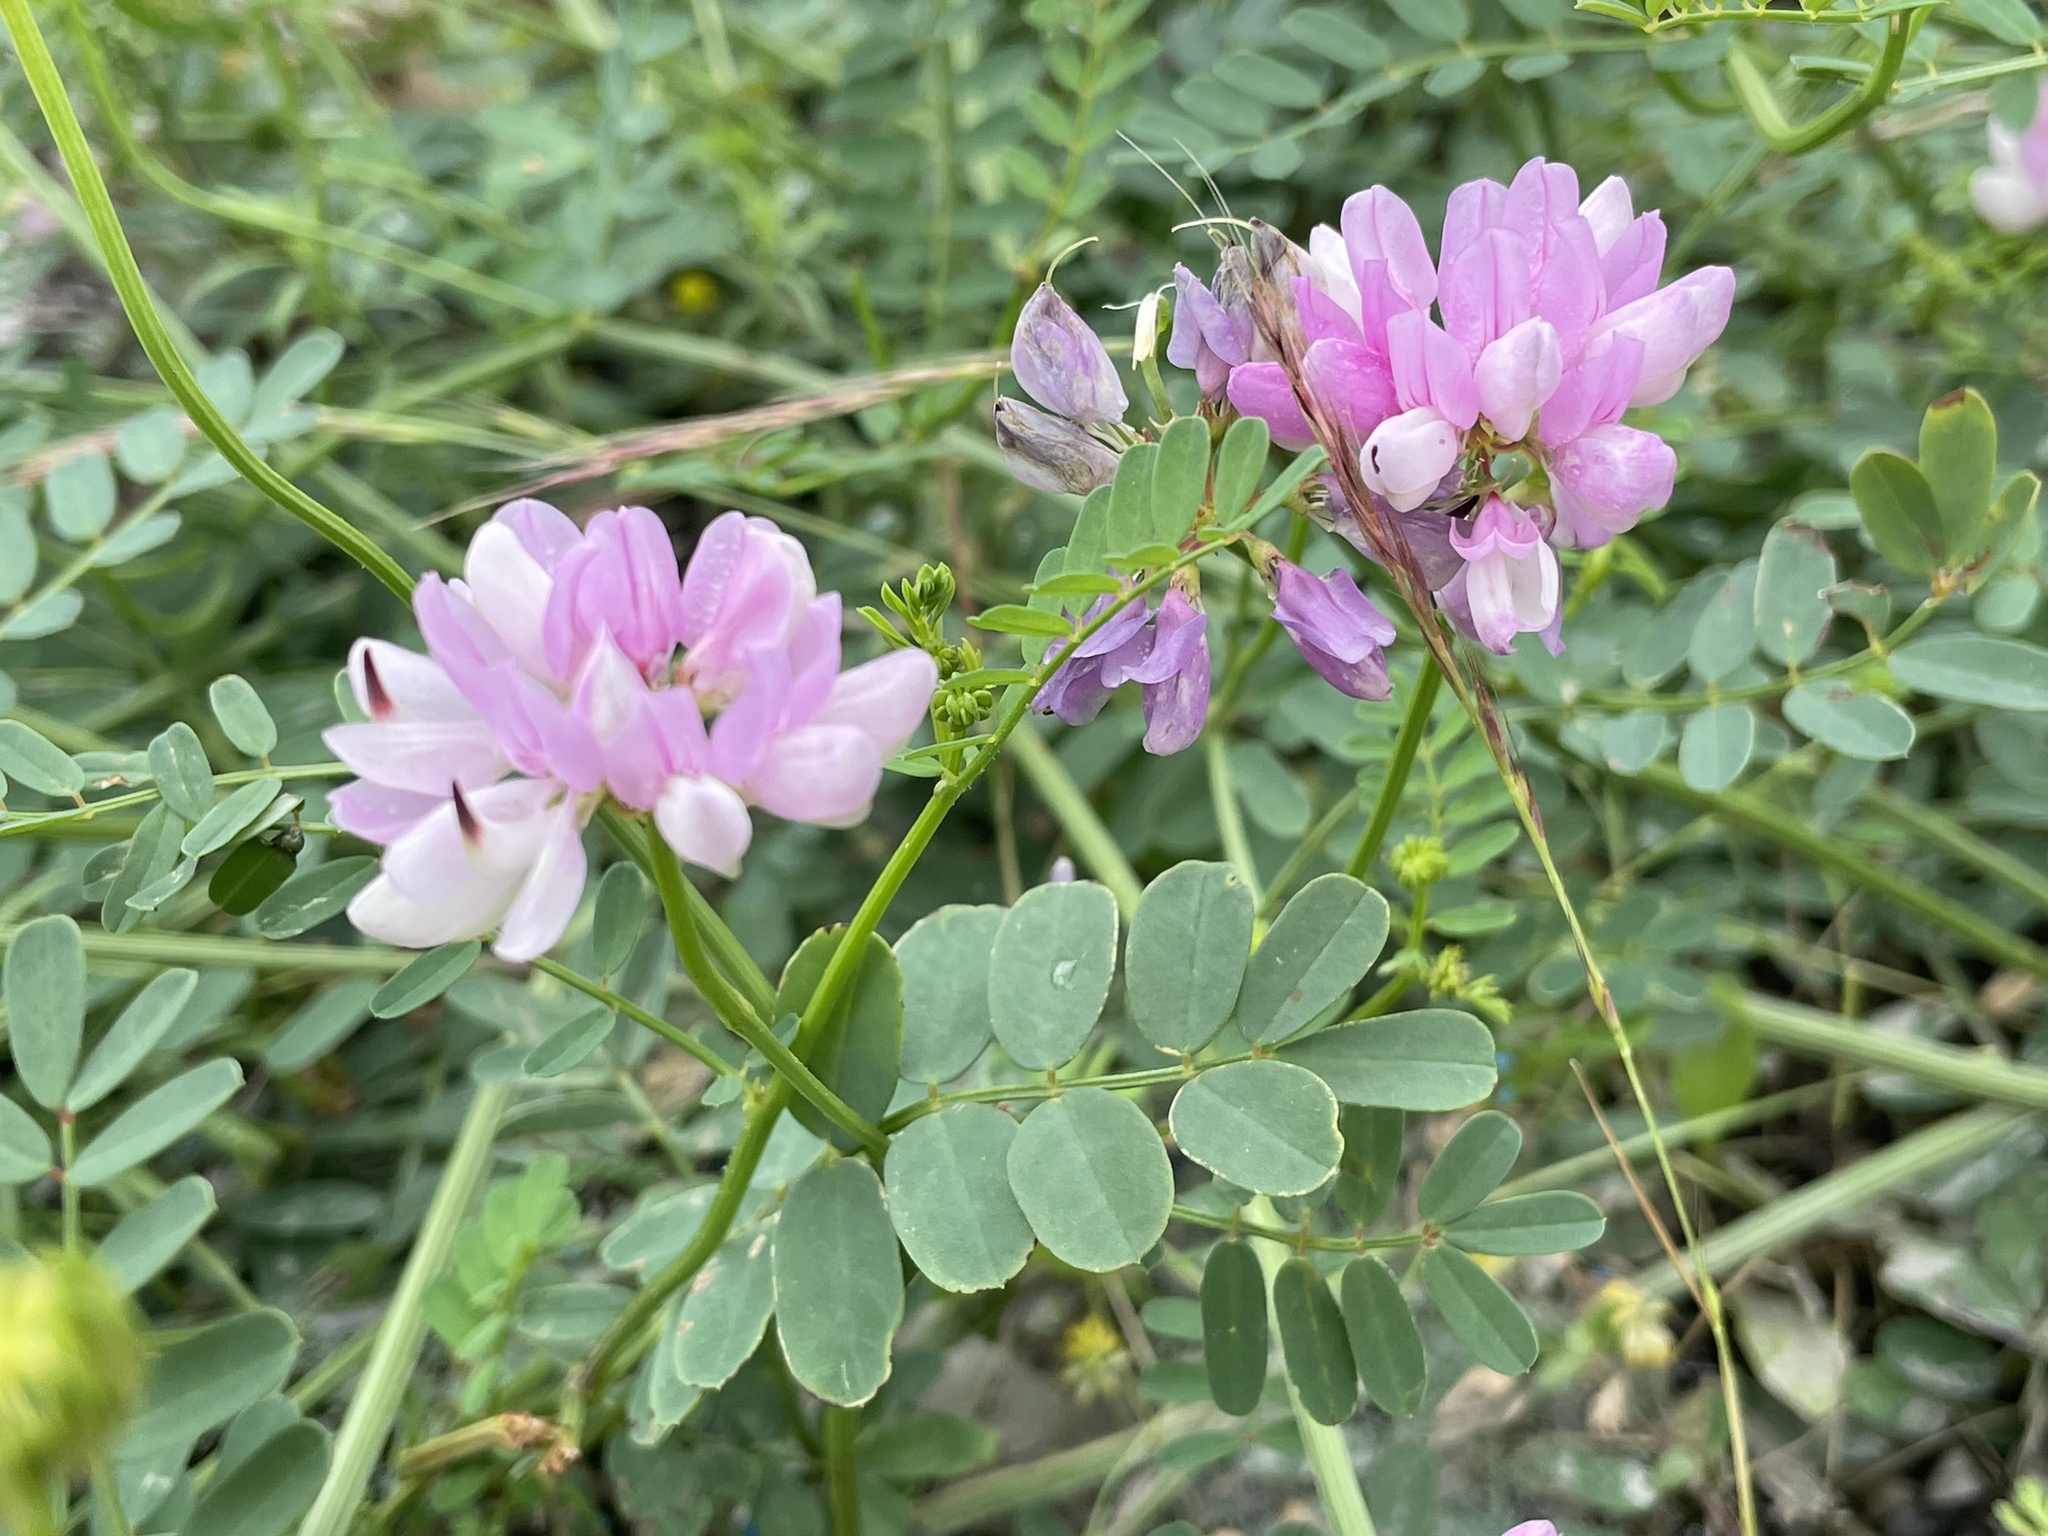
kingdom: Plantae
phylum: Tracheophyta
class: Magnoliopsida
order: Fabales
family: Fabaceae
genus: Coronilla
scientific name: Coronilla varia
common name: Crownvetch
